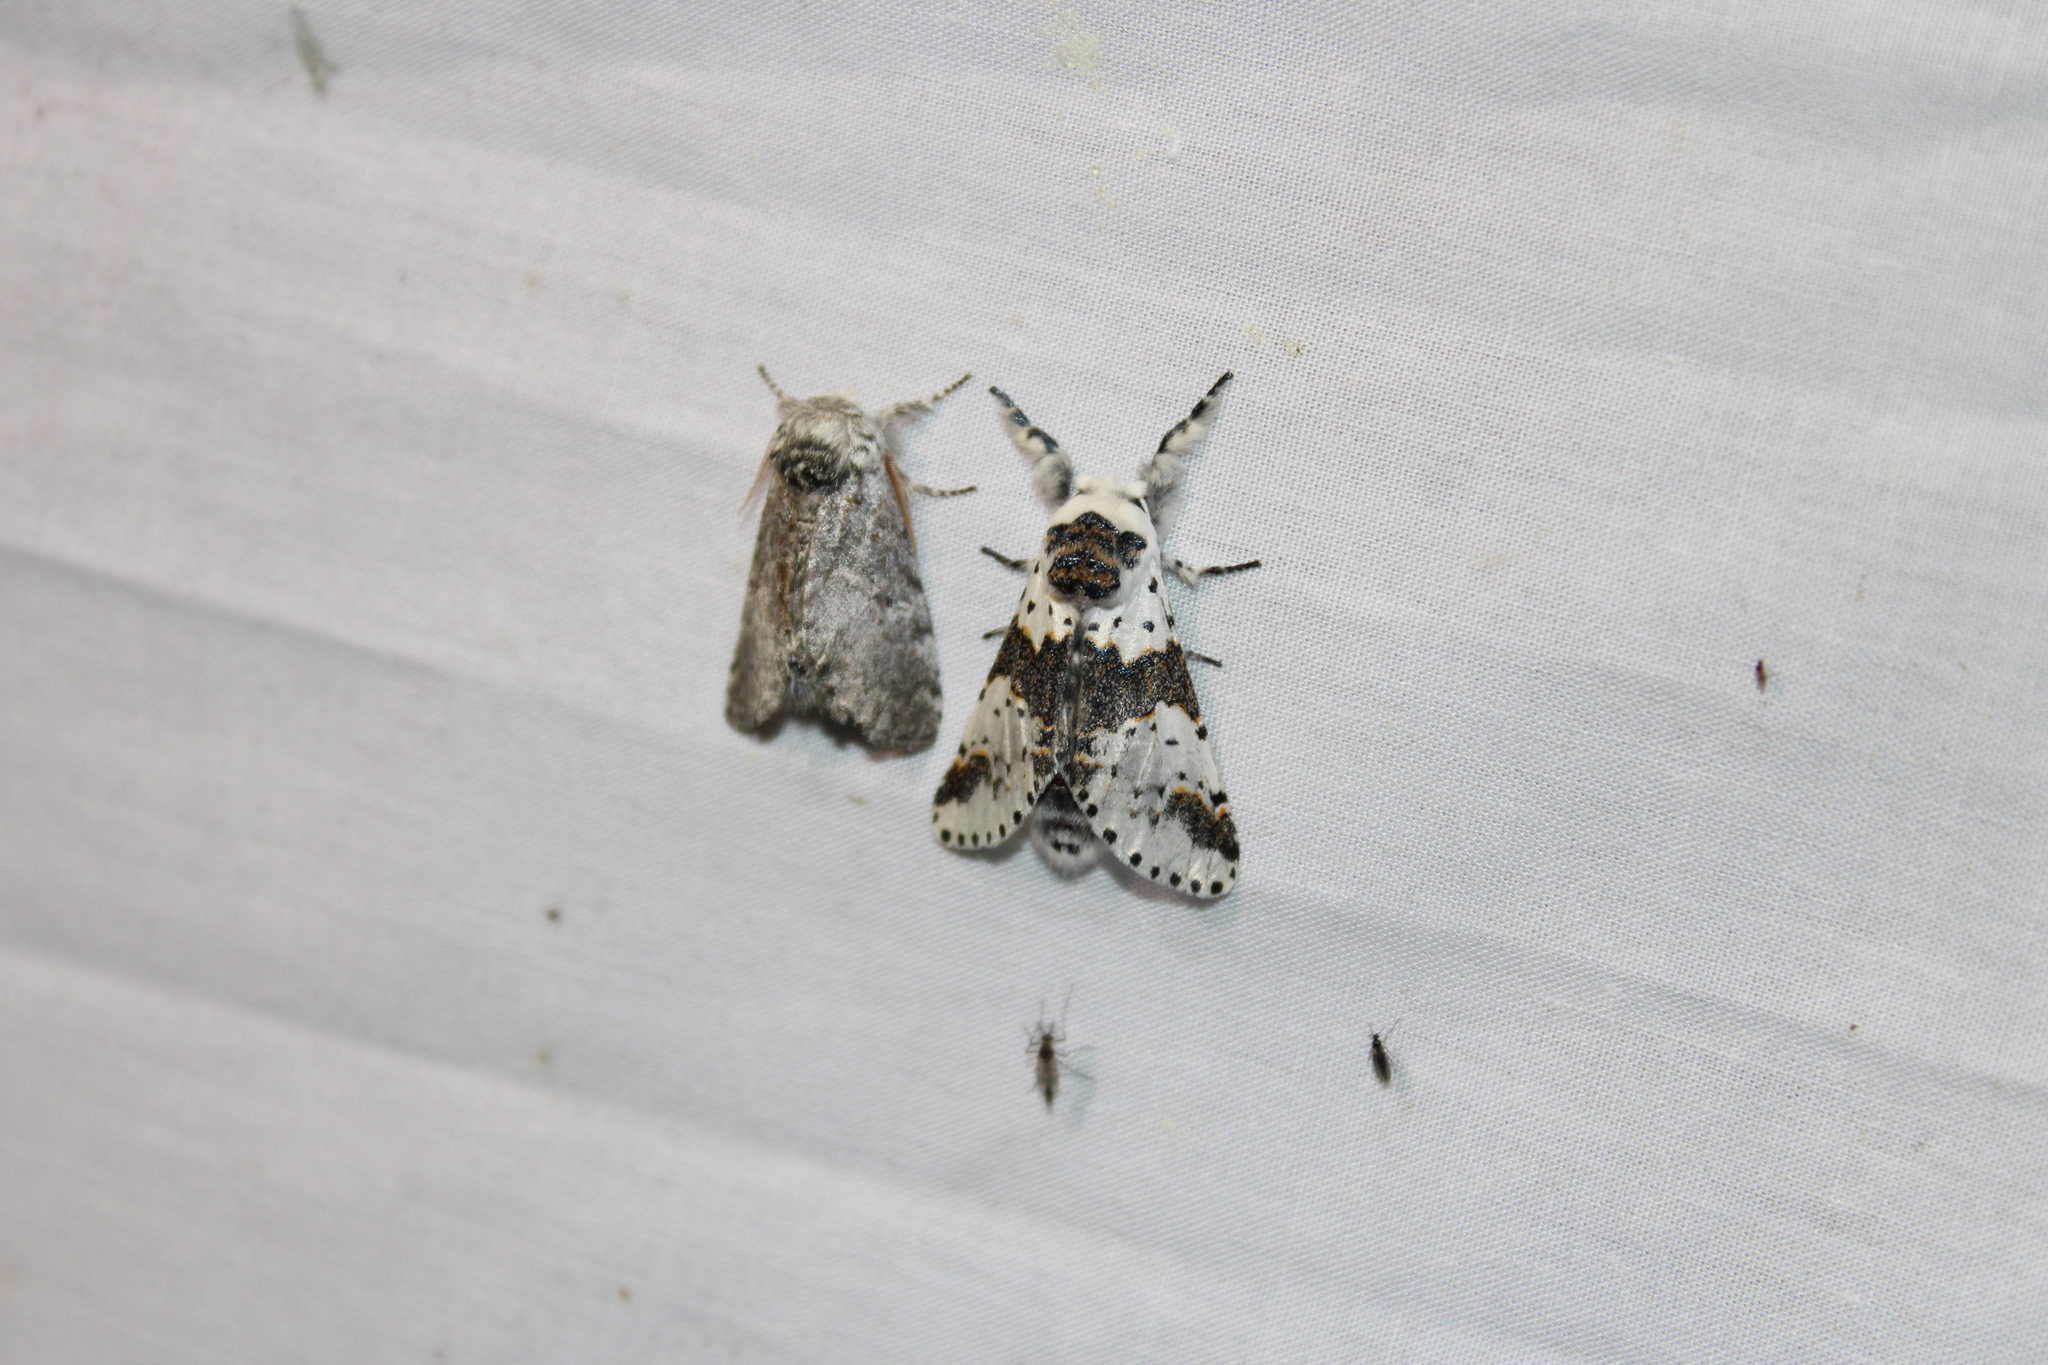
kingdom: Animalia
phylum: Arthropoda
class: Insecta
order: Lepidoptera
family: Notodontidae
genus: Furcula
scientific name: Furcula borealis
